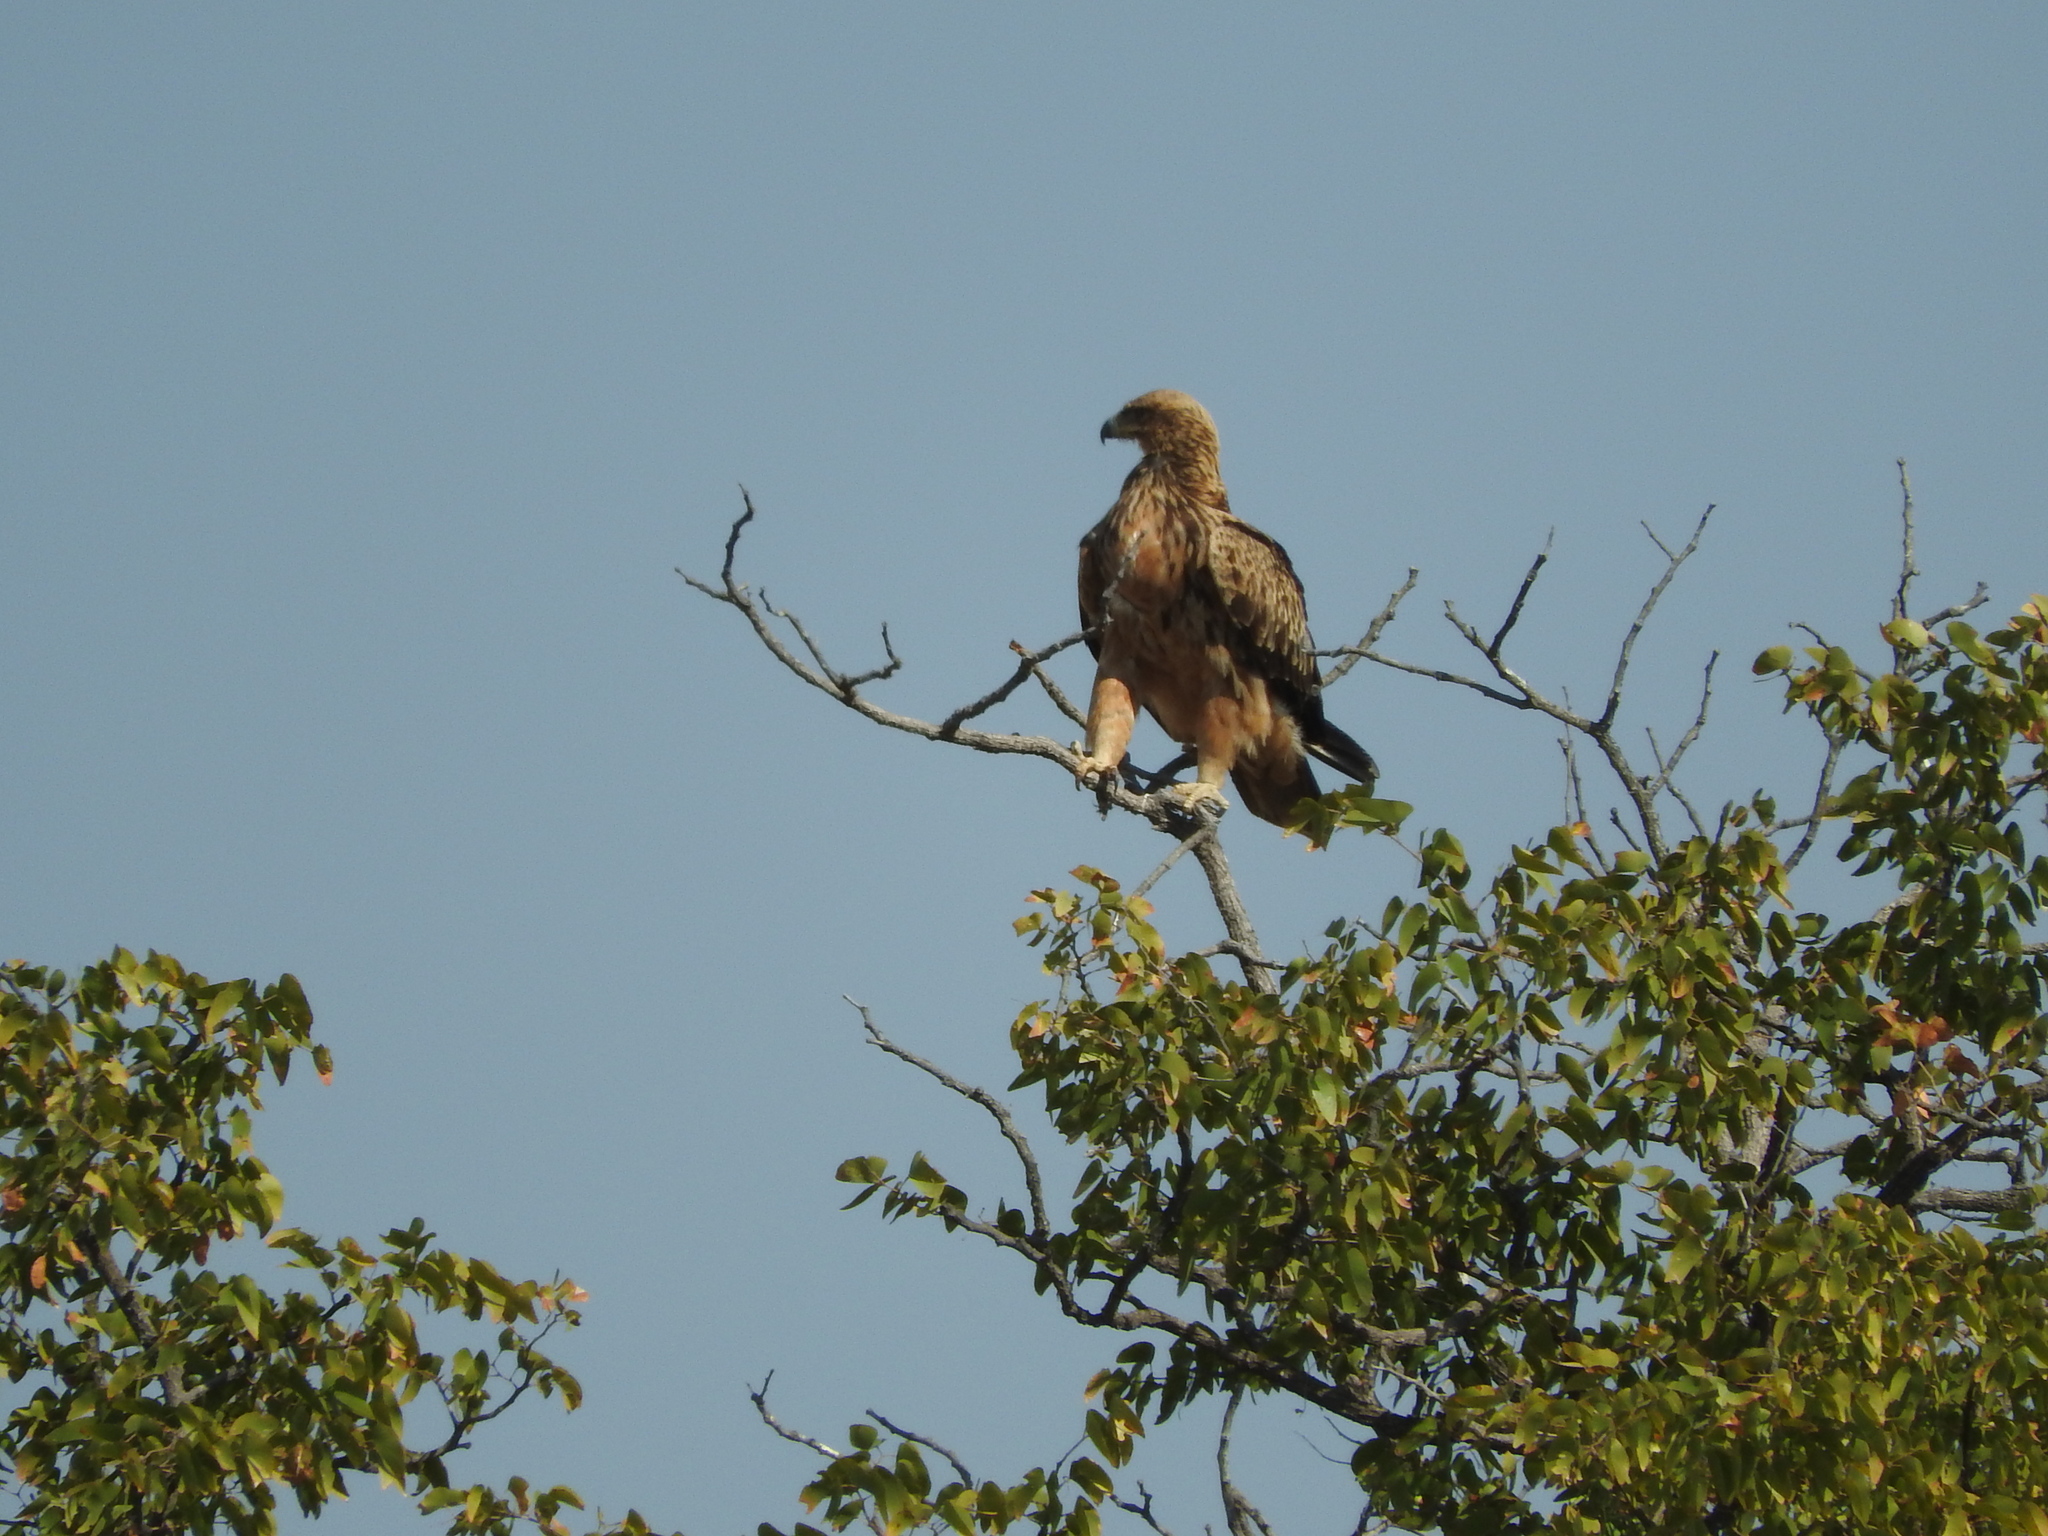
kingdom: Animalia
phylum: Chordata
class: Aves
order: Accipitriformes
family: Accipitridae
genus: Aquila
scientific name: Aquila rapax
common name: Tawny eagle
